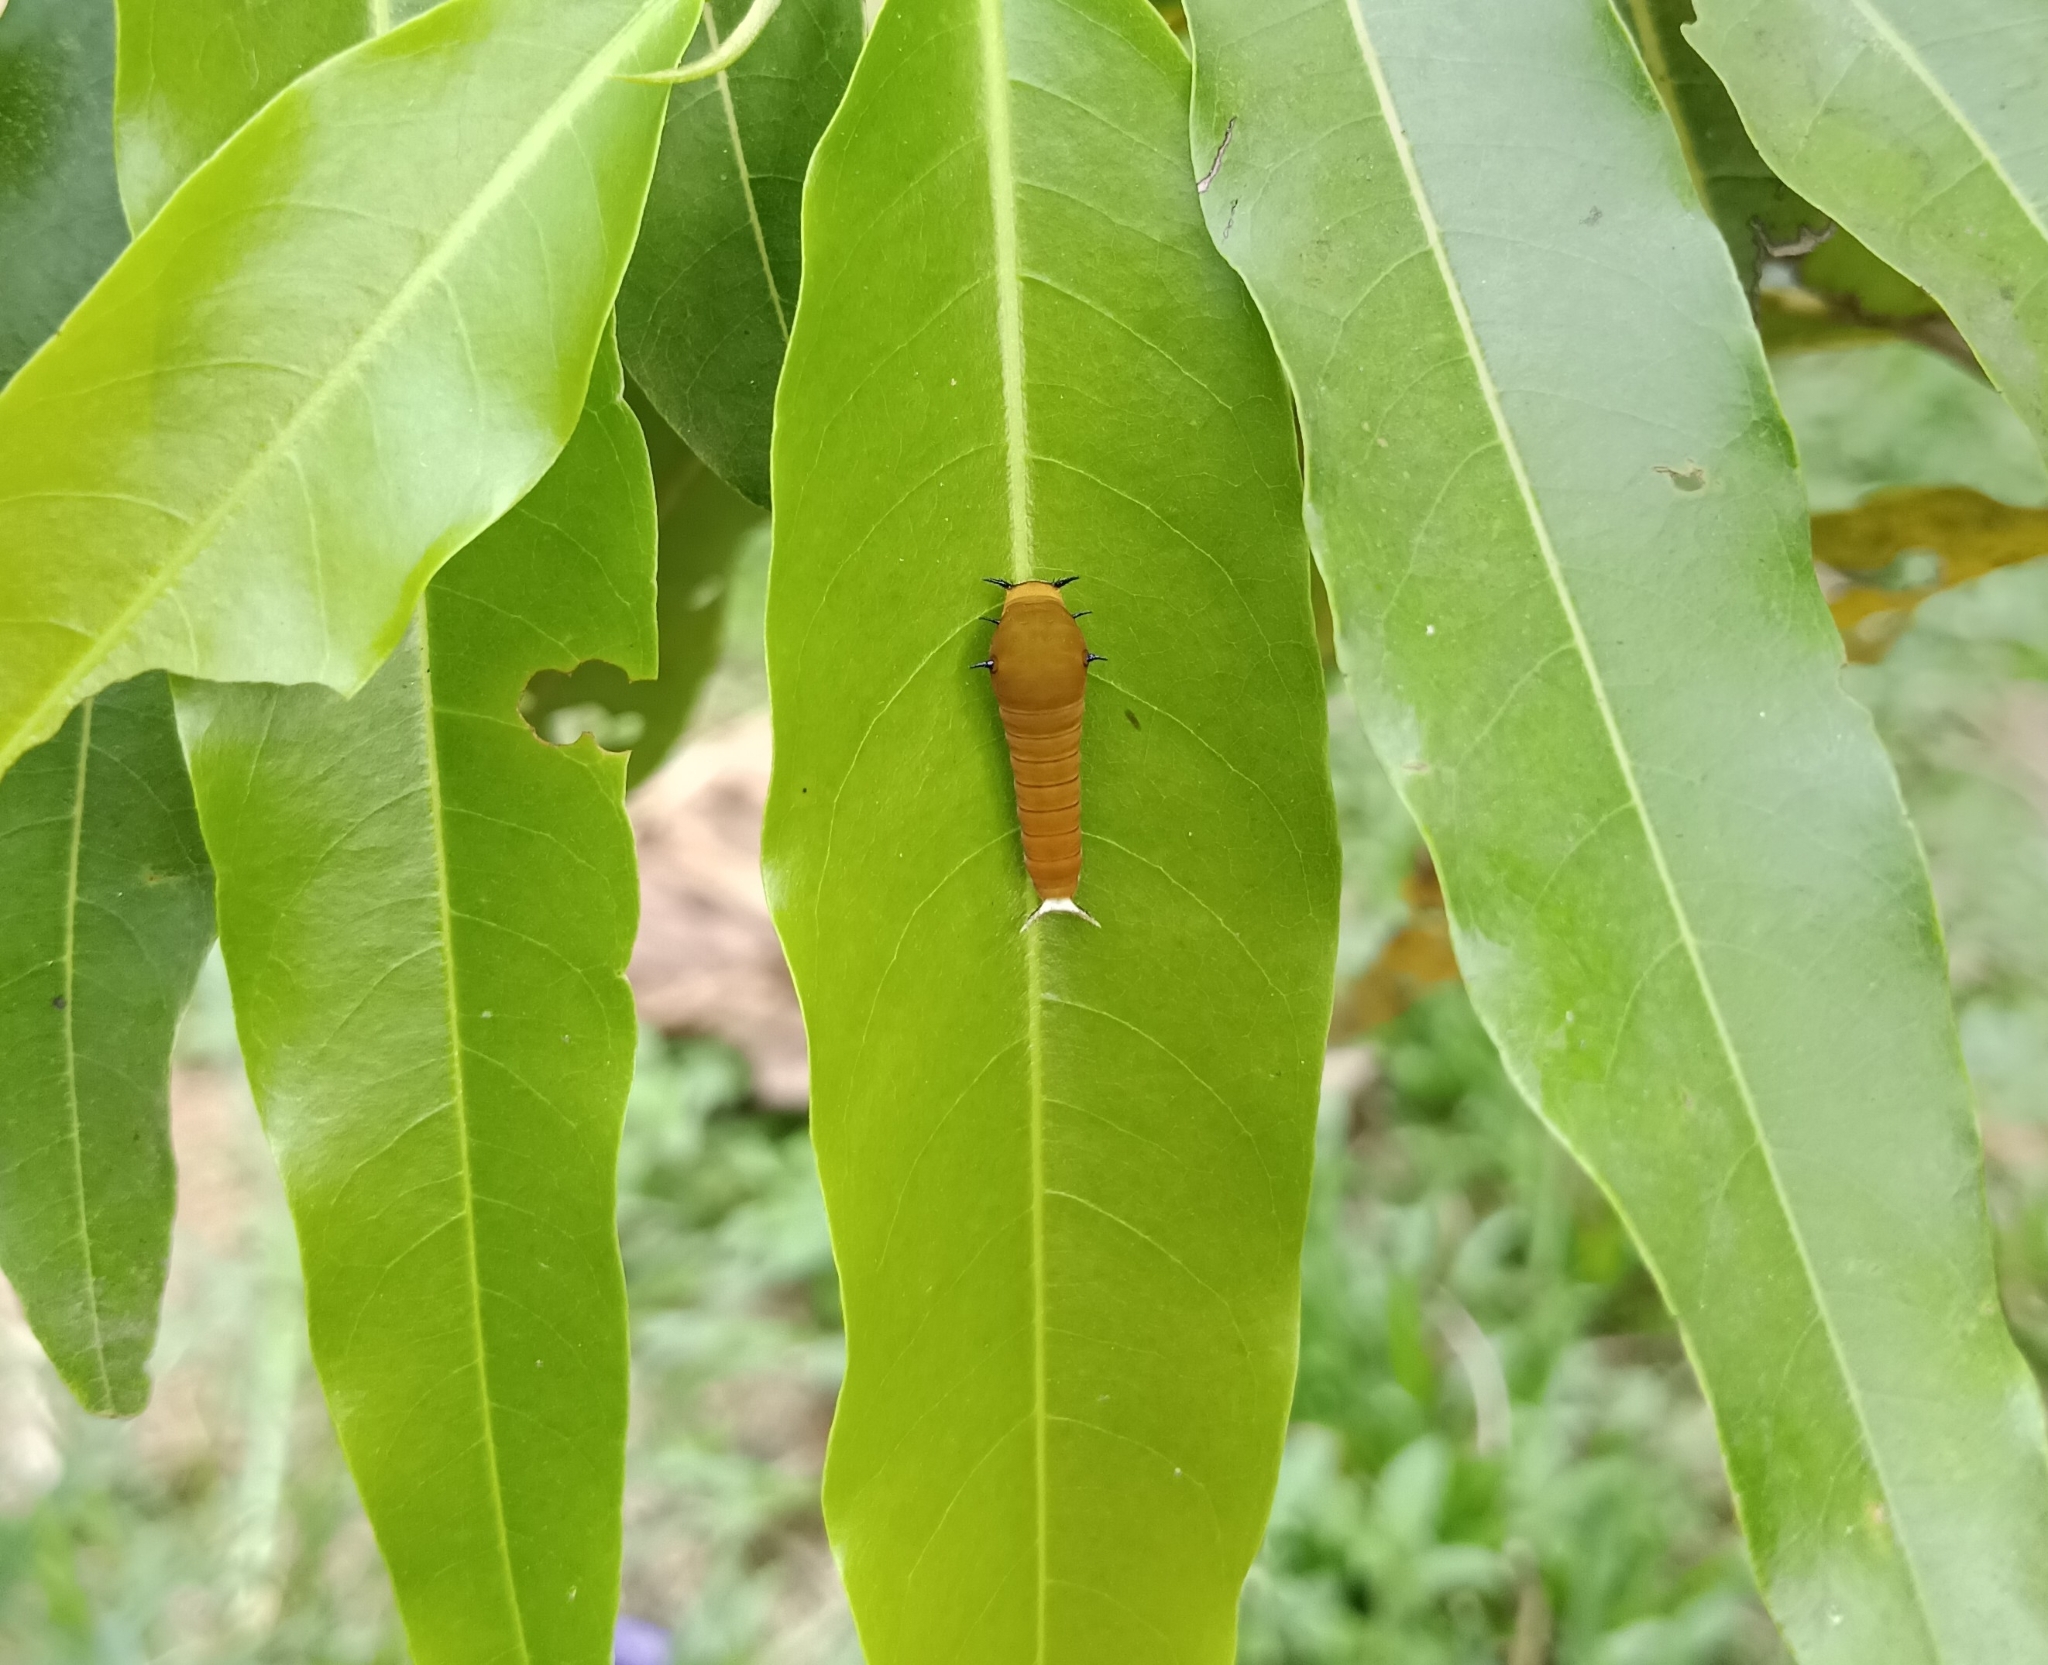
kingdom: Animalia
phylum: Arthropoda
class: Insecta
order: Lepidoptera
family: Papilionidae
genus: Graphium
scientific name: Graphium doson
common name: Common jay
